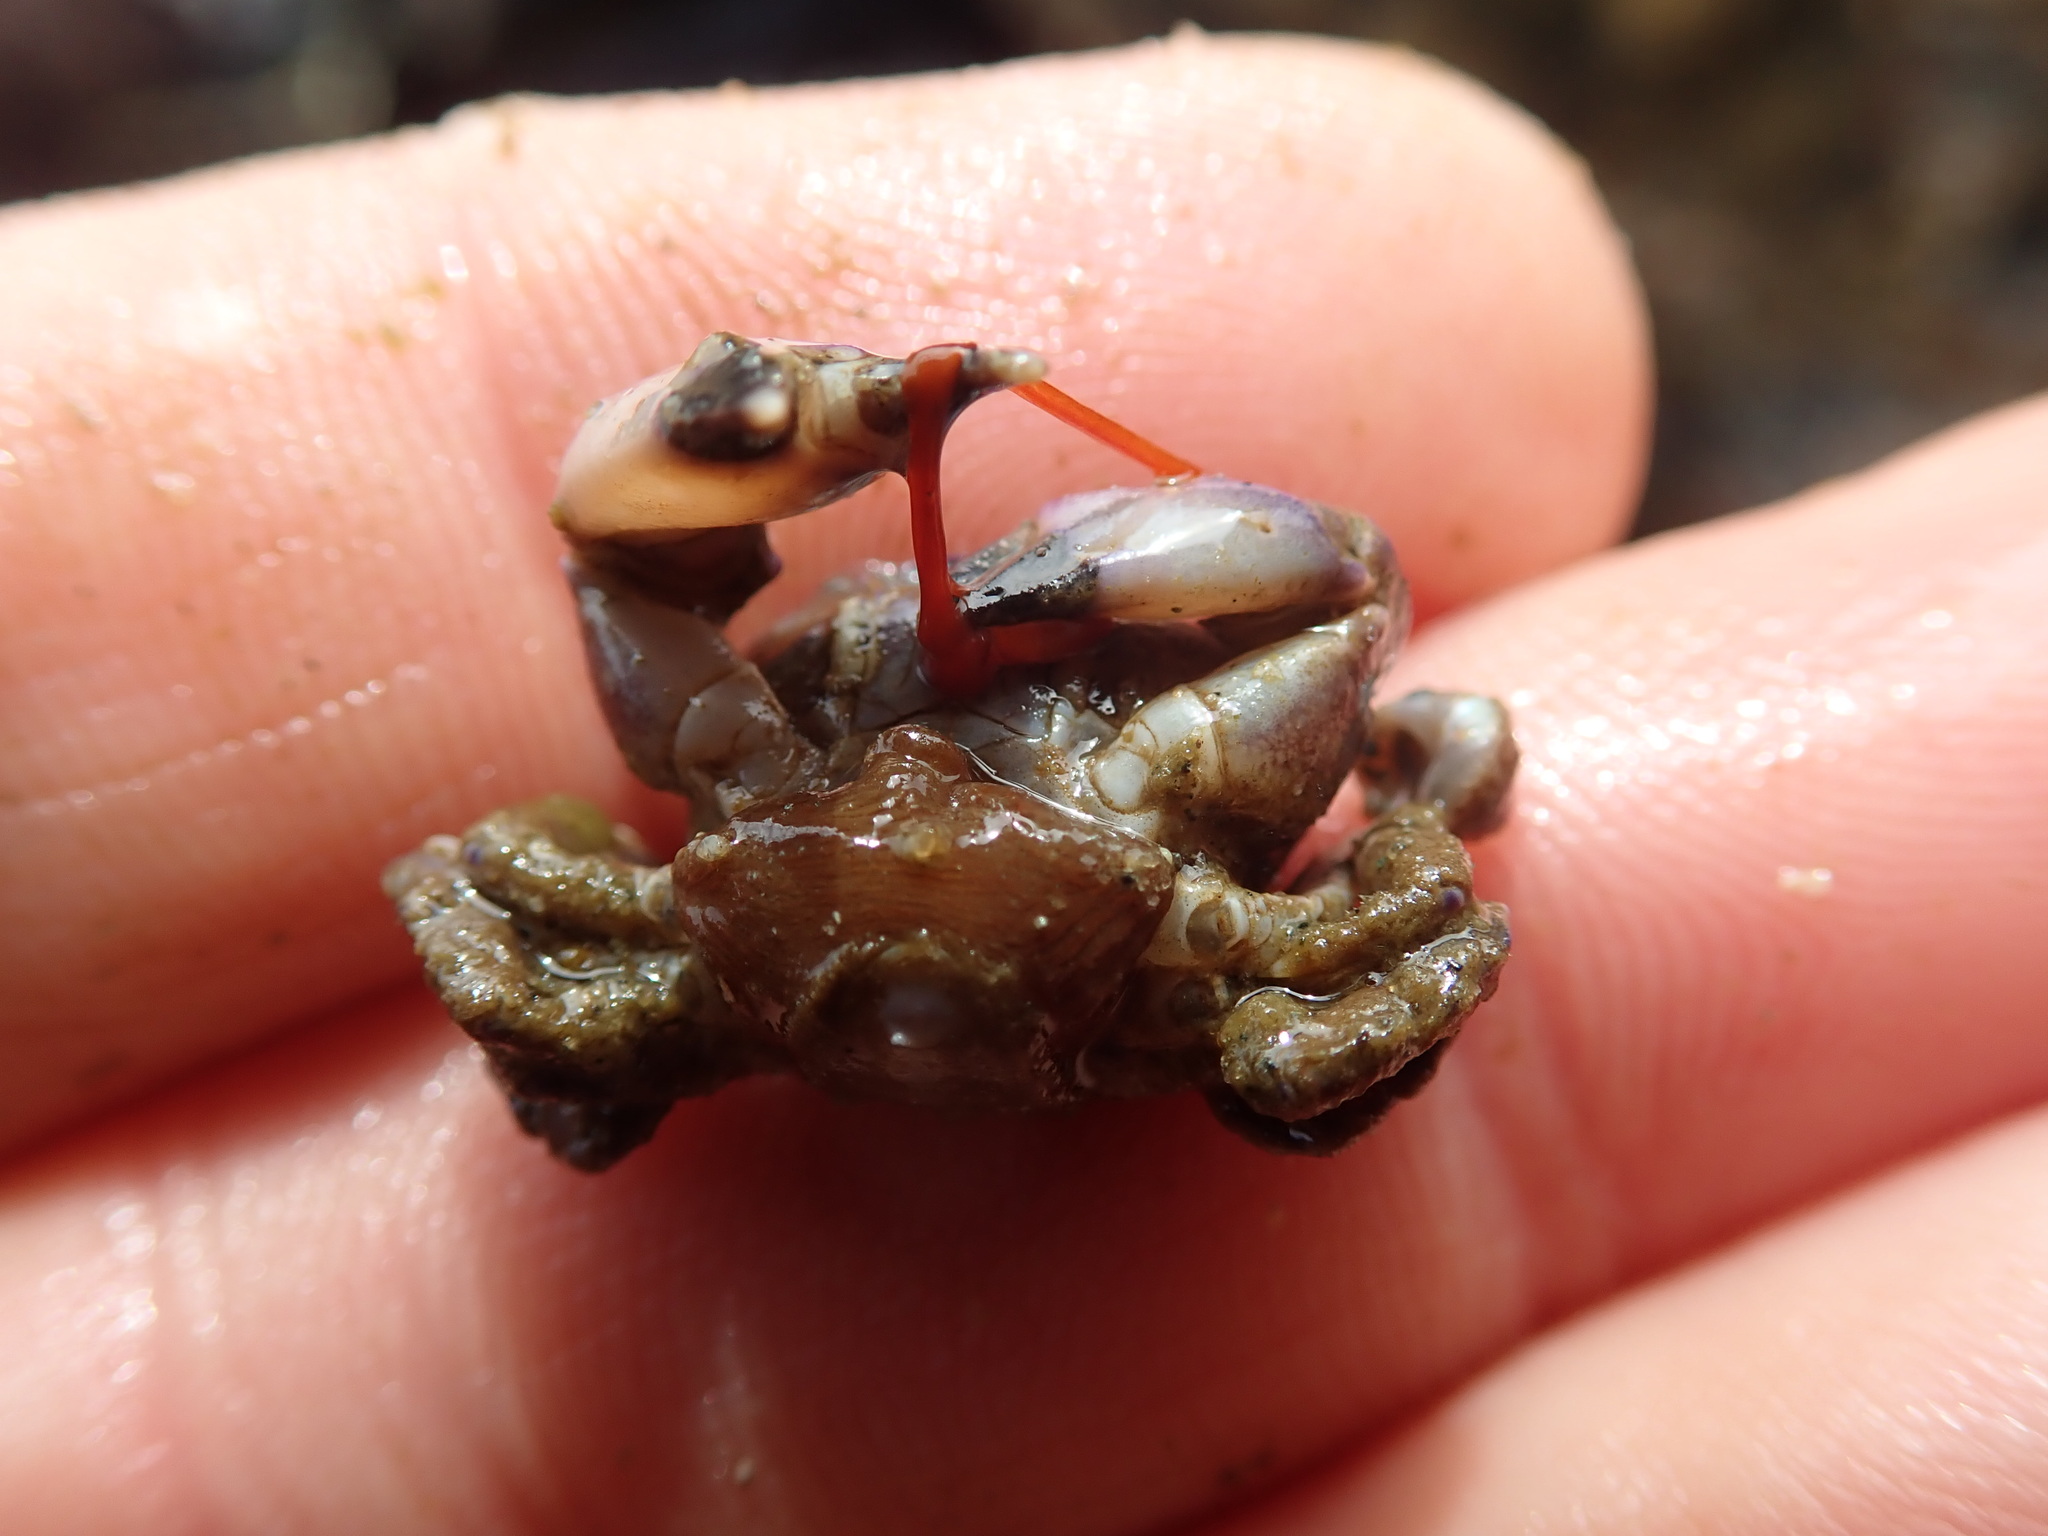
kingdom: Animalia
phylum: Arthropoda
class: Malacostraca
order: Decapoda
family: Panopeidae
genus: Lophopanopeus
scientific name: Lophopanopeus bellus
